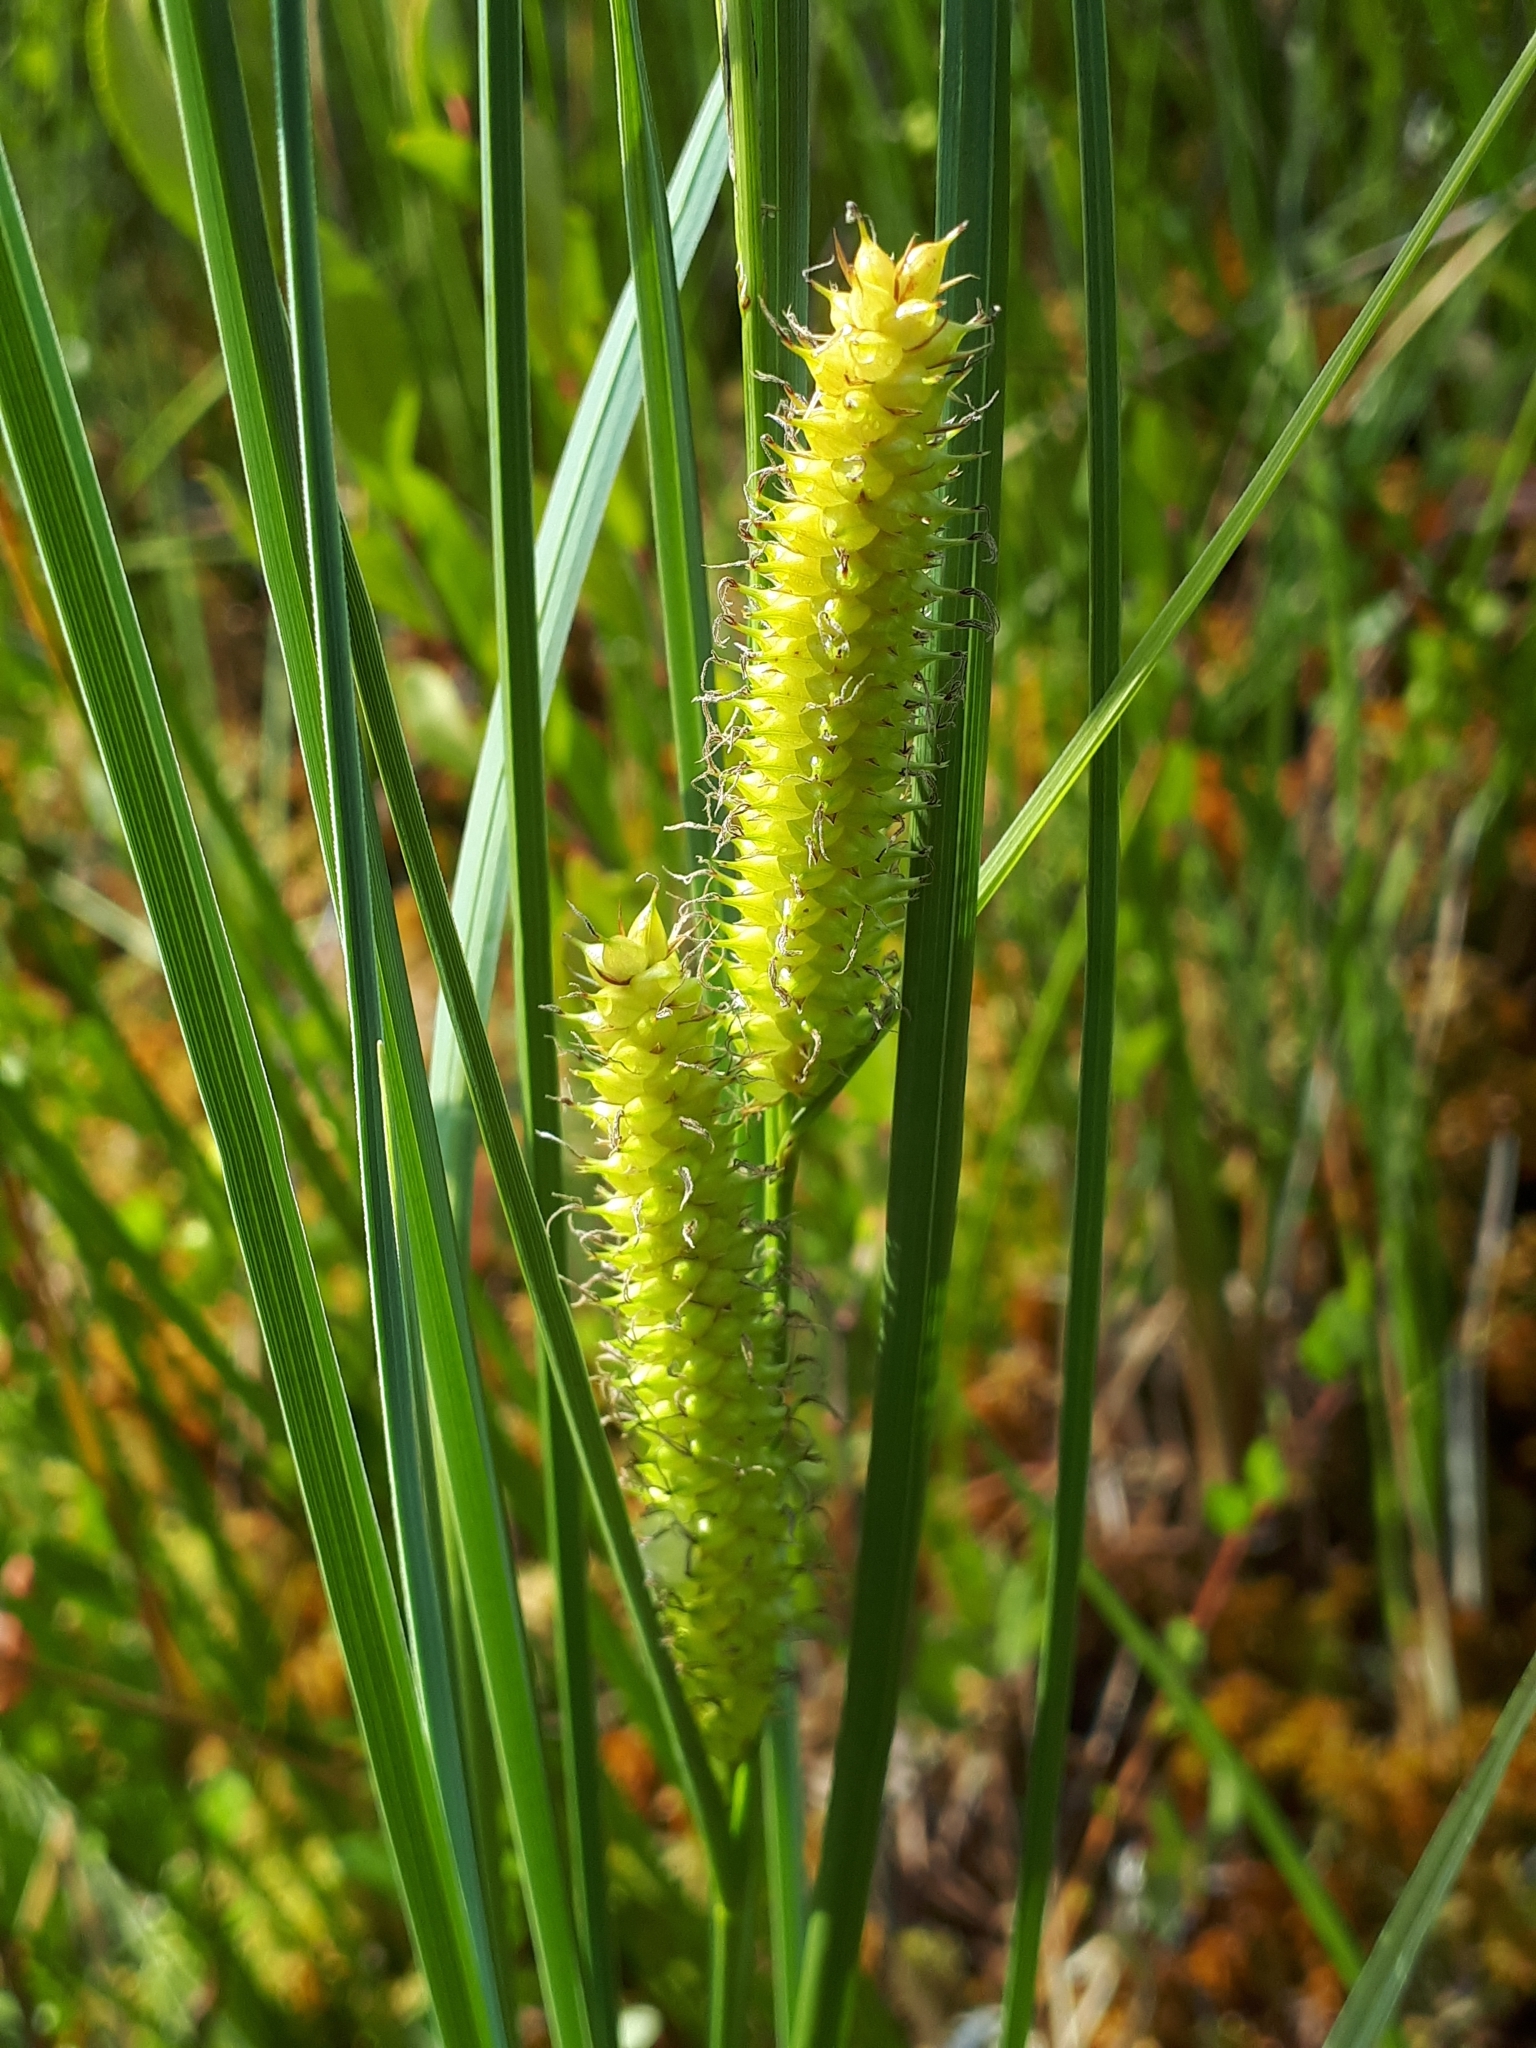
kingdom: Plantae
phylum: Tracheophyta
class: Liliopsida
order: Poales
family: Cyperaceae
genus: Carex
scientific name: Carex rostrata
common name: Bottle sedge
